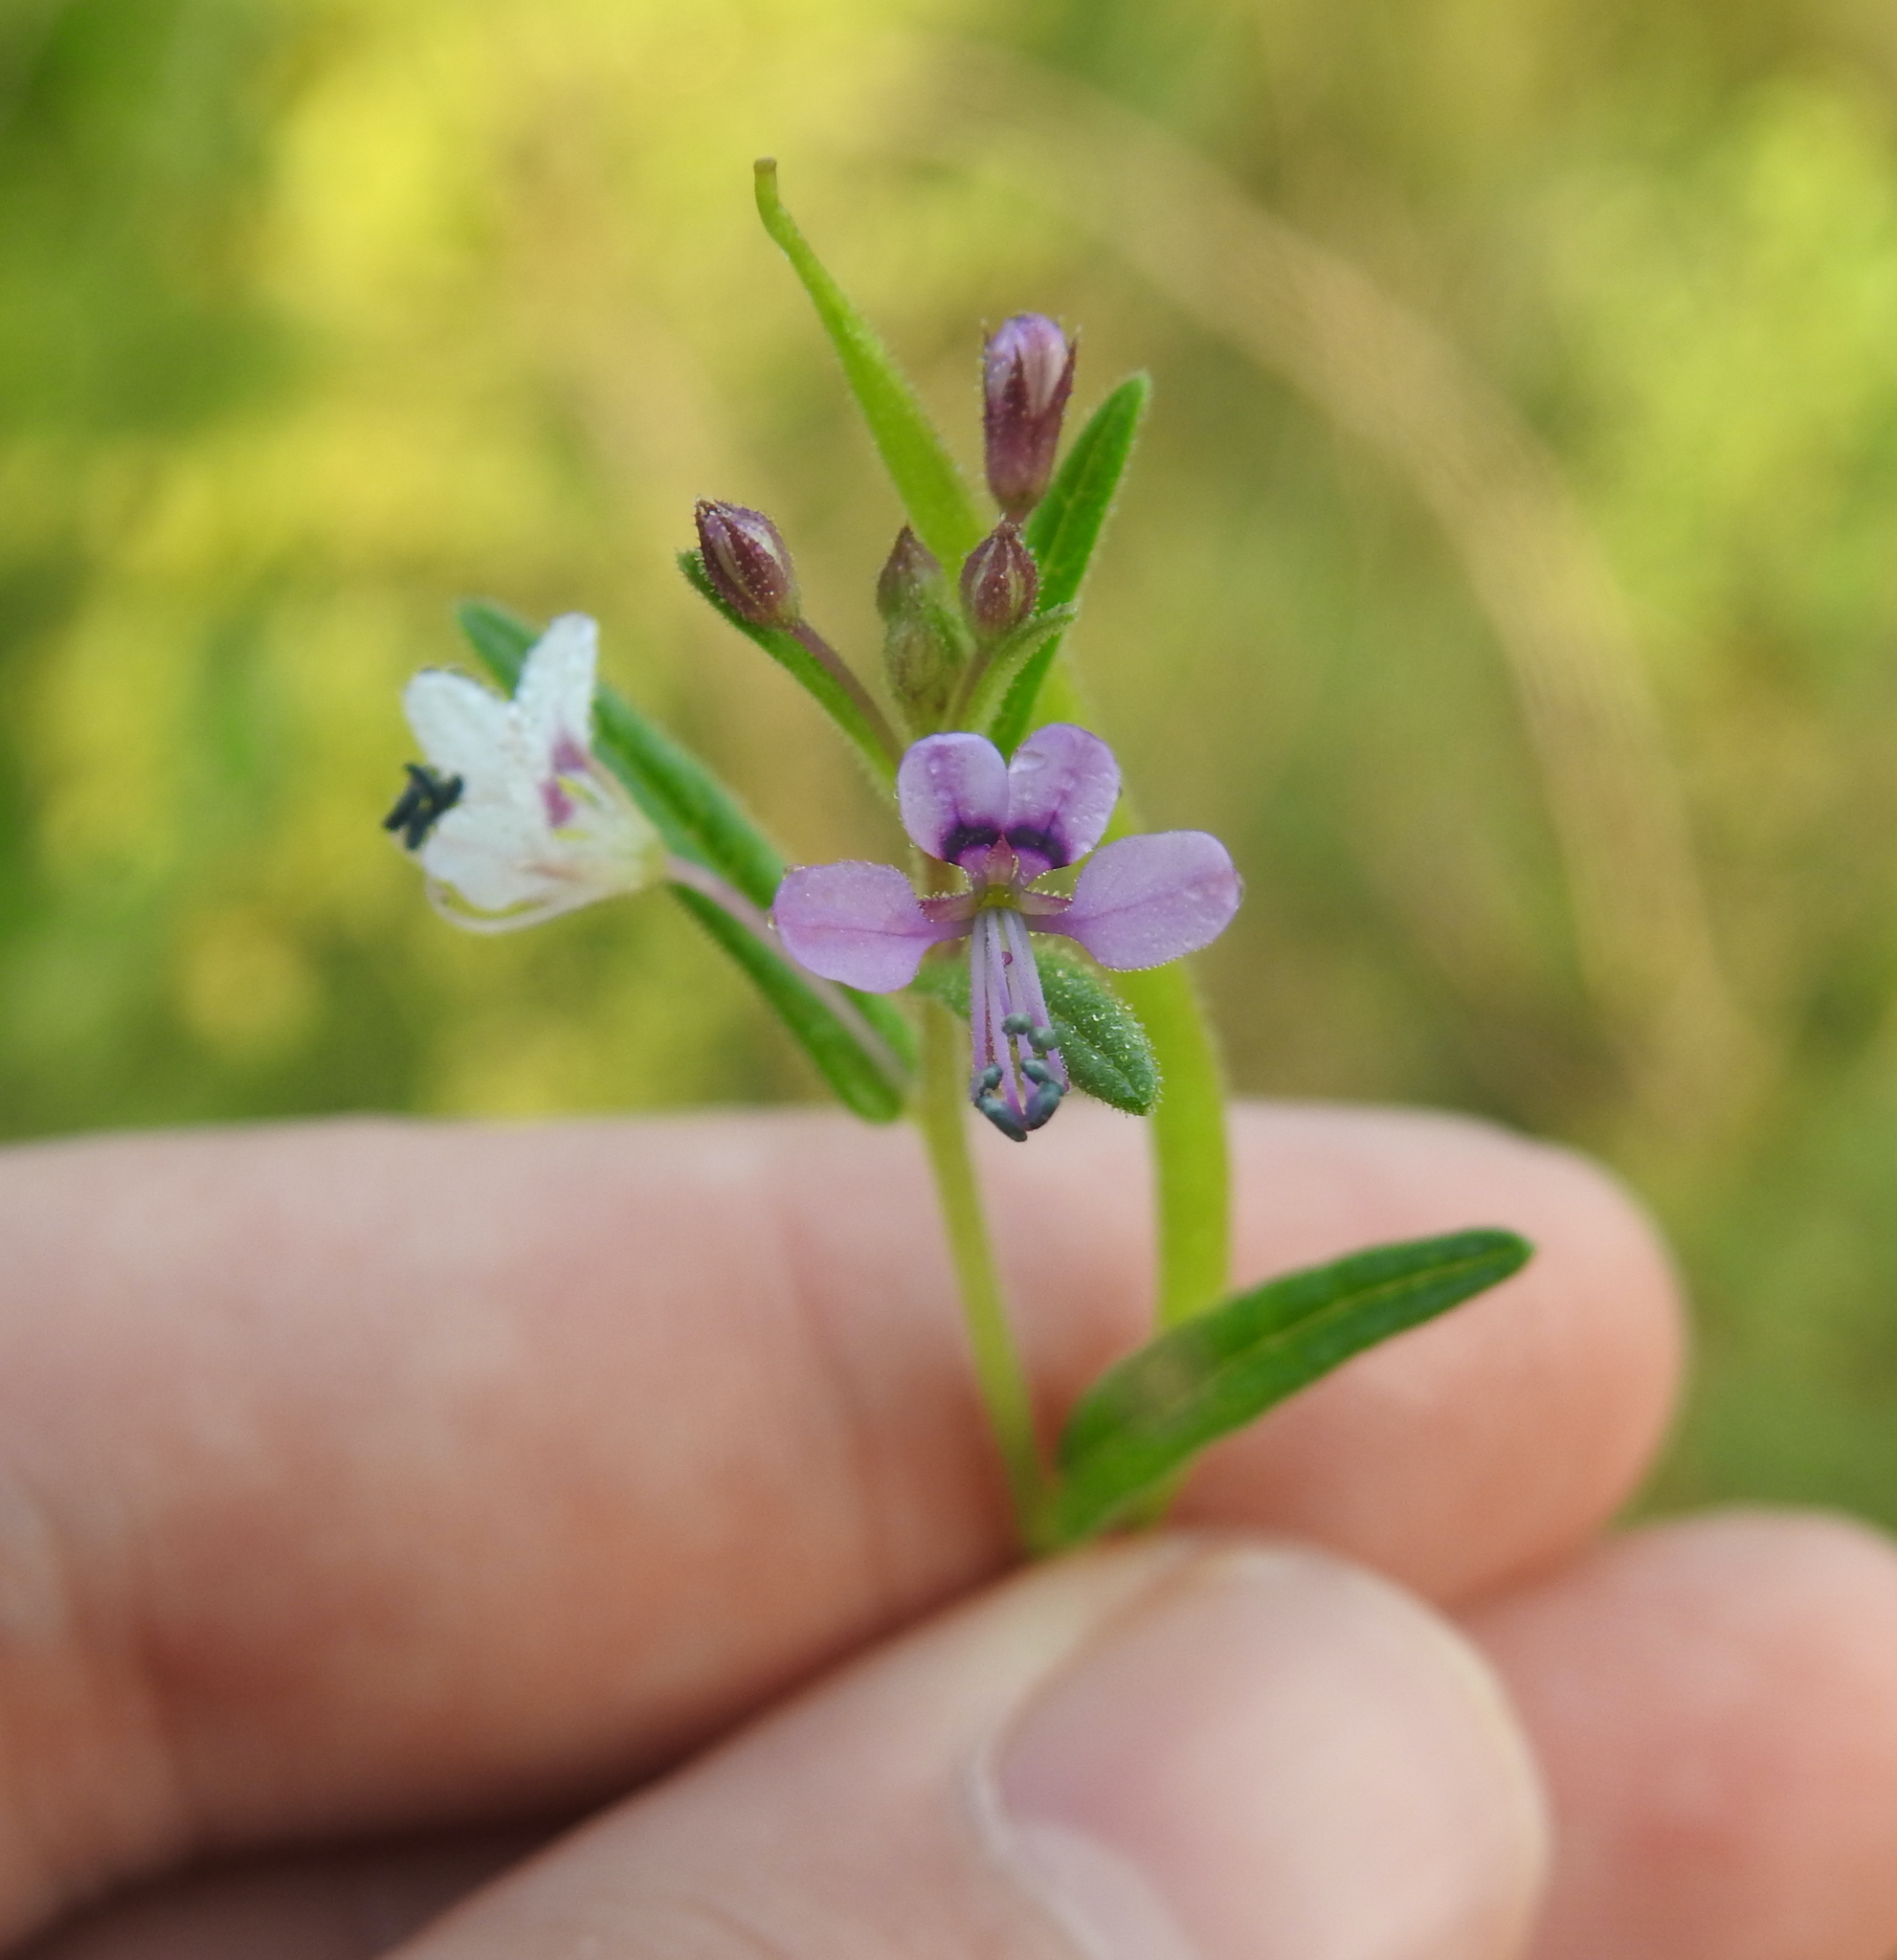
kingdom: Plantae
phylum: Tracheophyta
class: Magnoliopsida
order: Brassicales
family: Cleomaceae
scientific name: Cleomaceae
